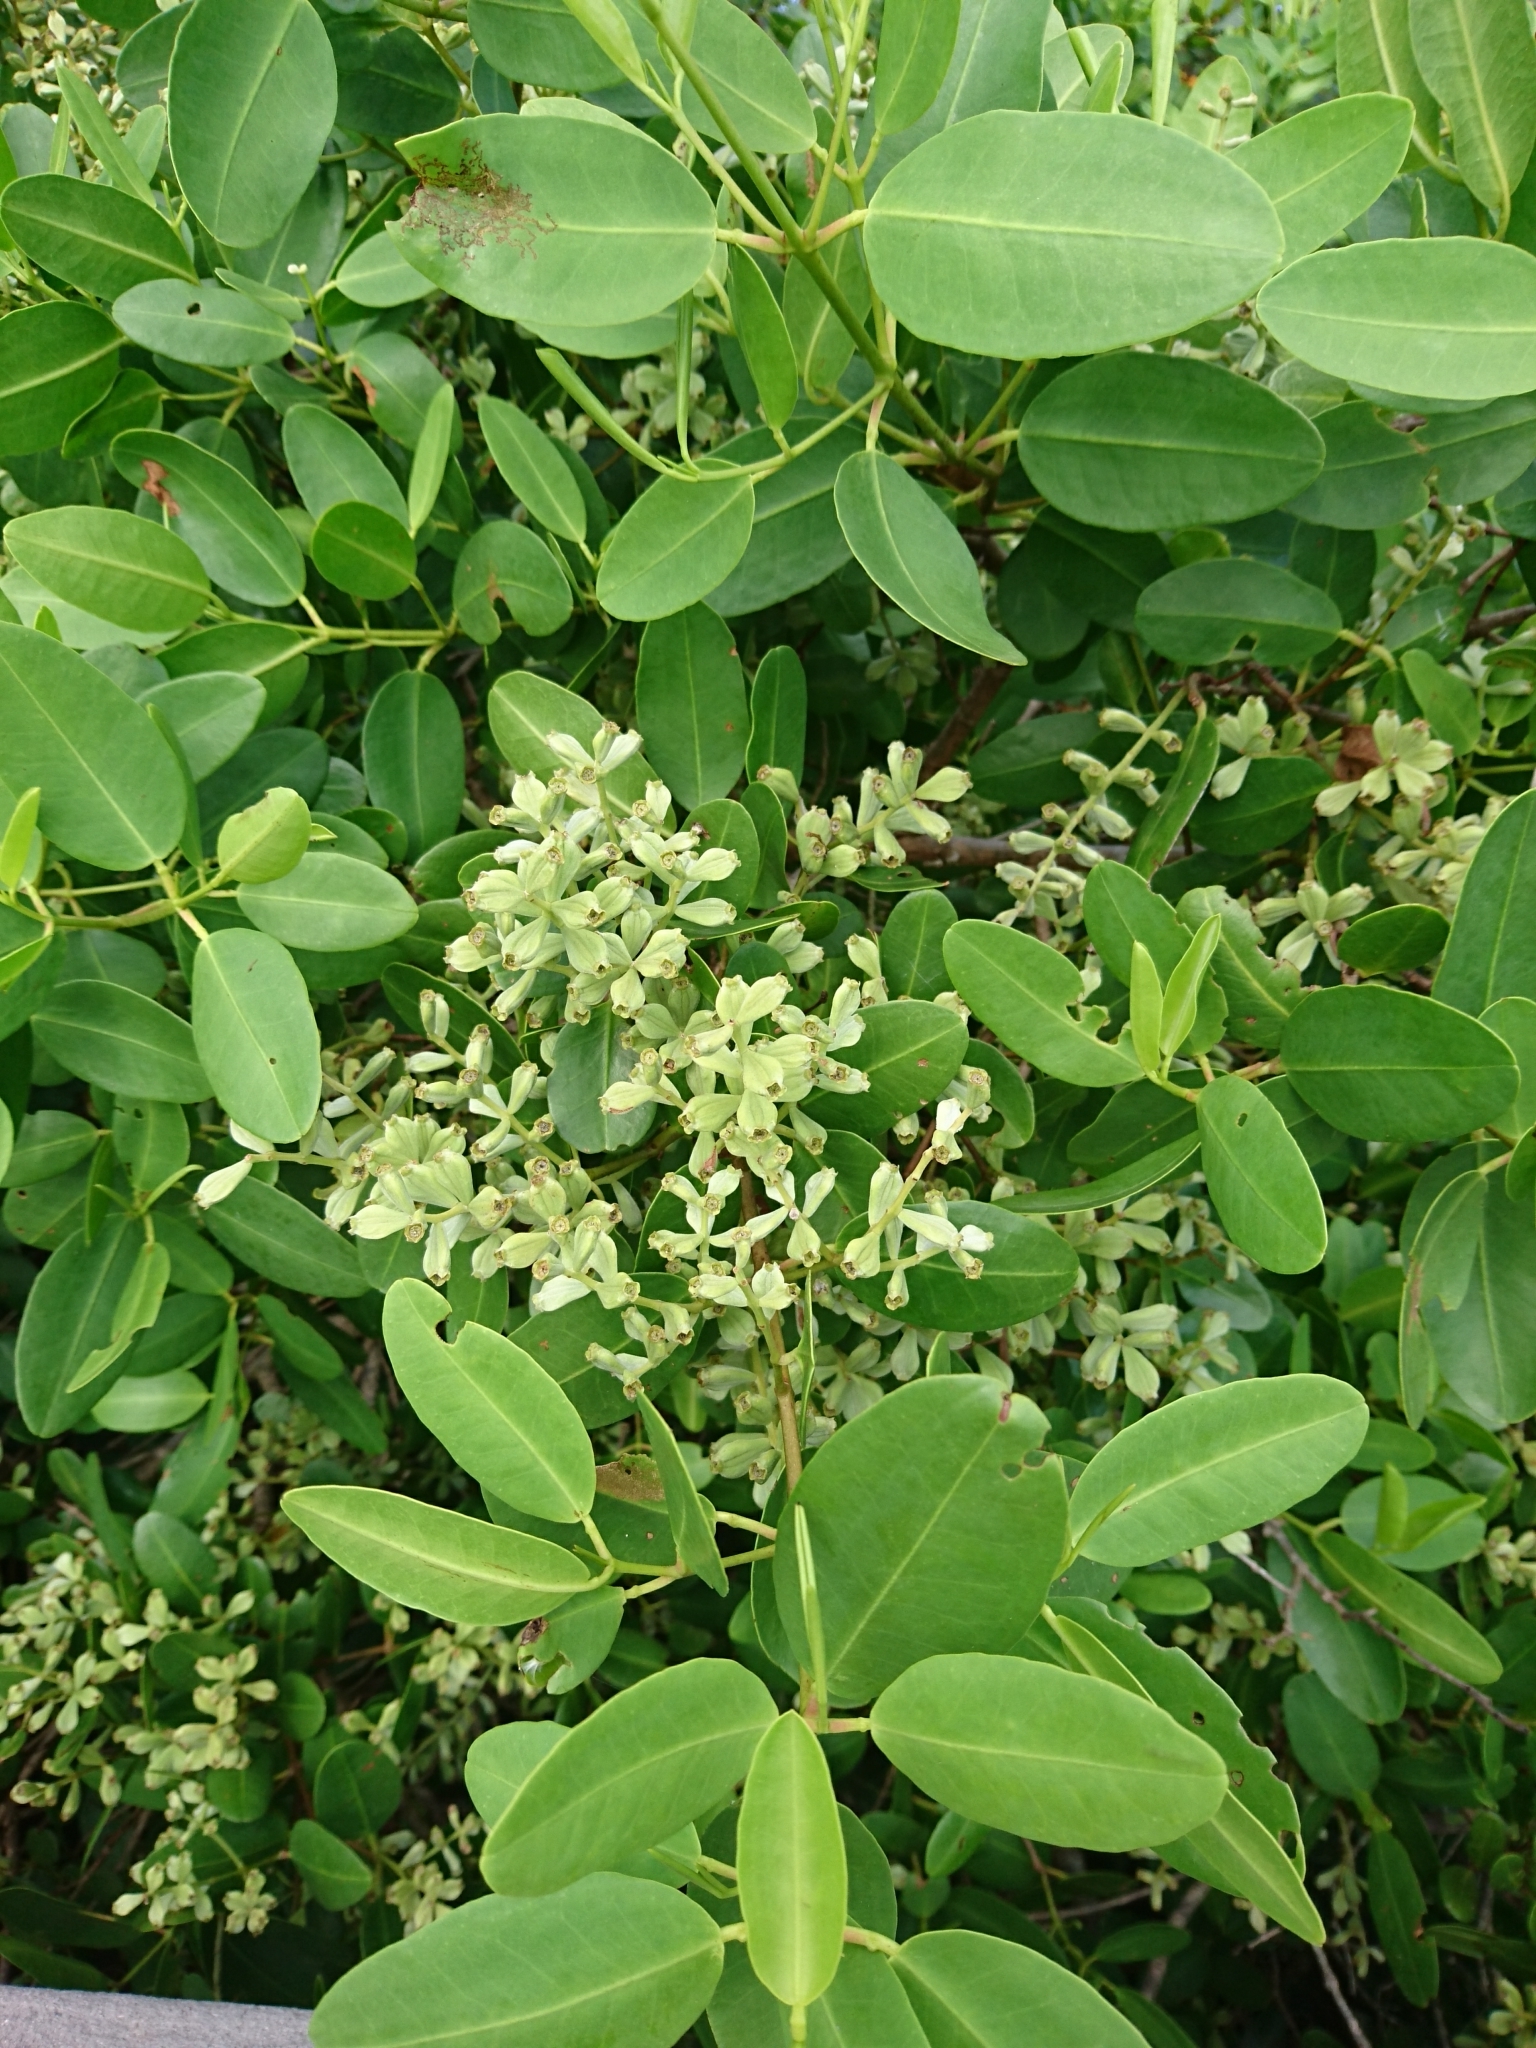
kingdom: Plantae
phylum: Tracheophyta
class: Magnoliopsida
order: Myrtales
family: Combretaceae
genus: Laguncularia
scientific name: Laguncularia racemosa
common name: White mangrove
